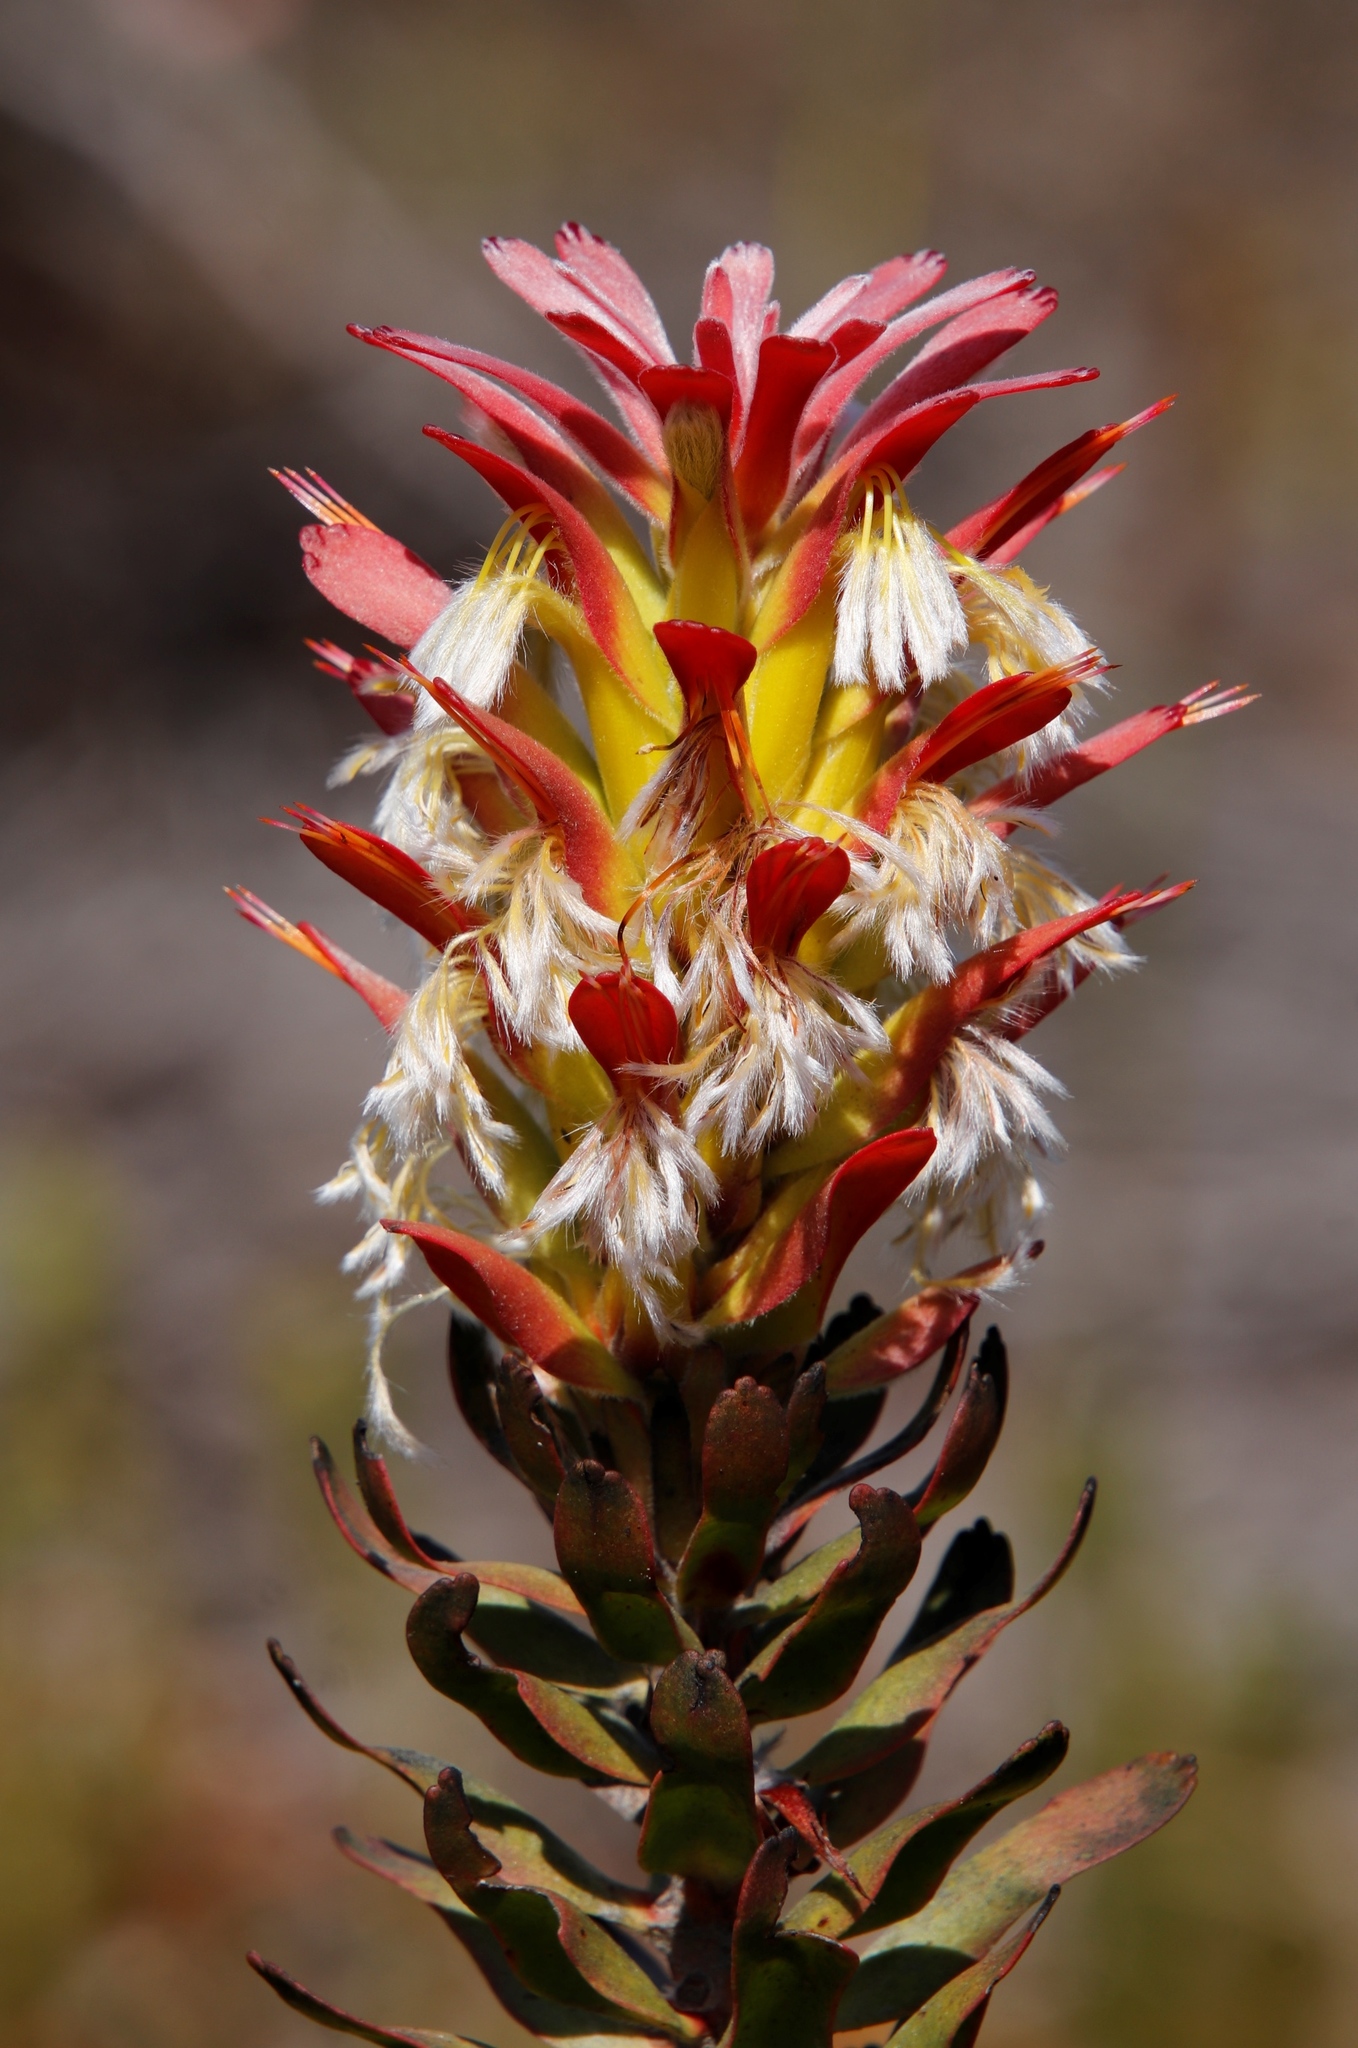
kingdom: Plantae
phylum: Tracheophyta
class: Magnoliopsida
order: Proteales
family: Proteaceae
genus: Mimetes
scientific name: Mimetes cucullatus
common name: Common pagoda
